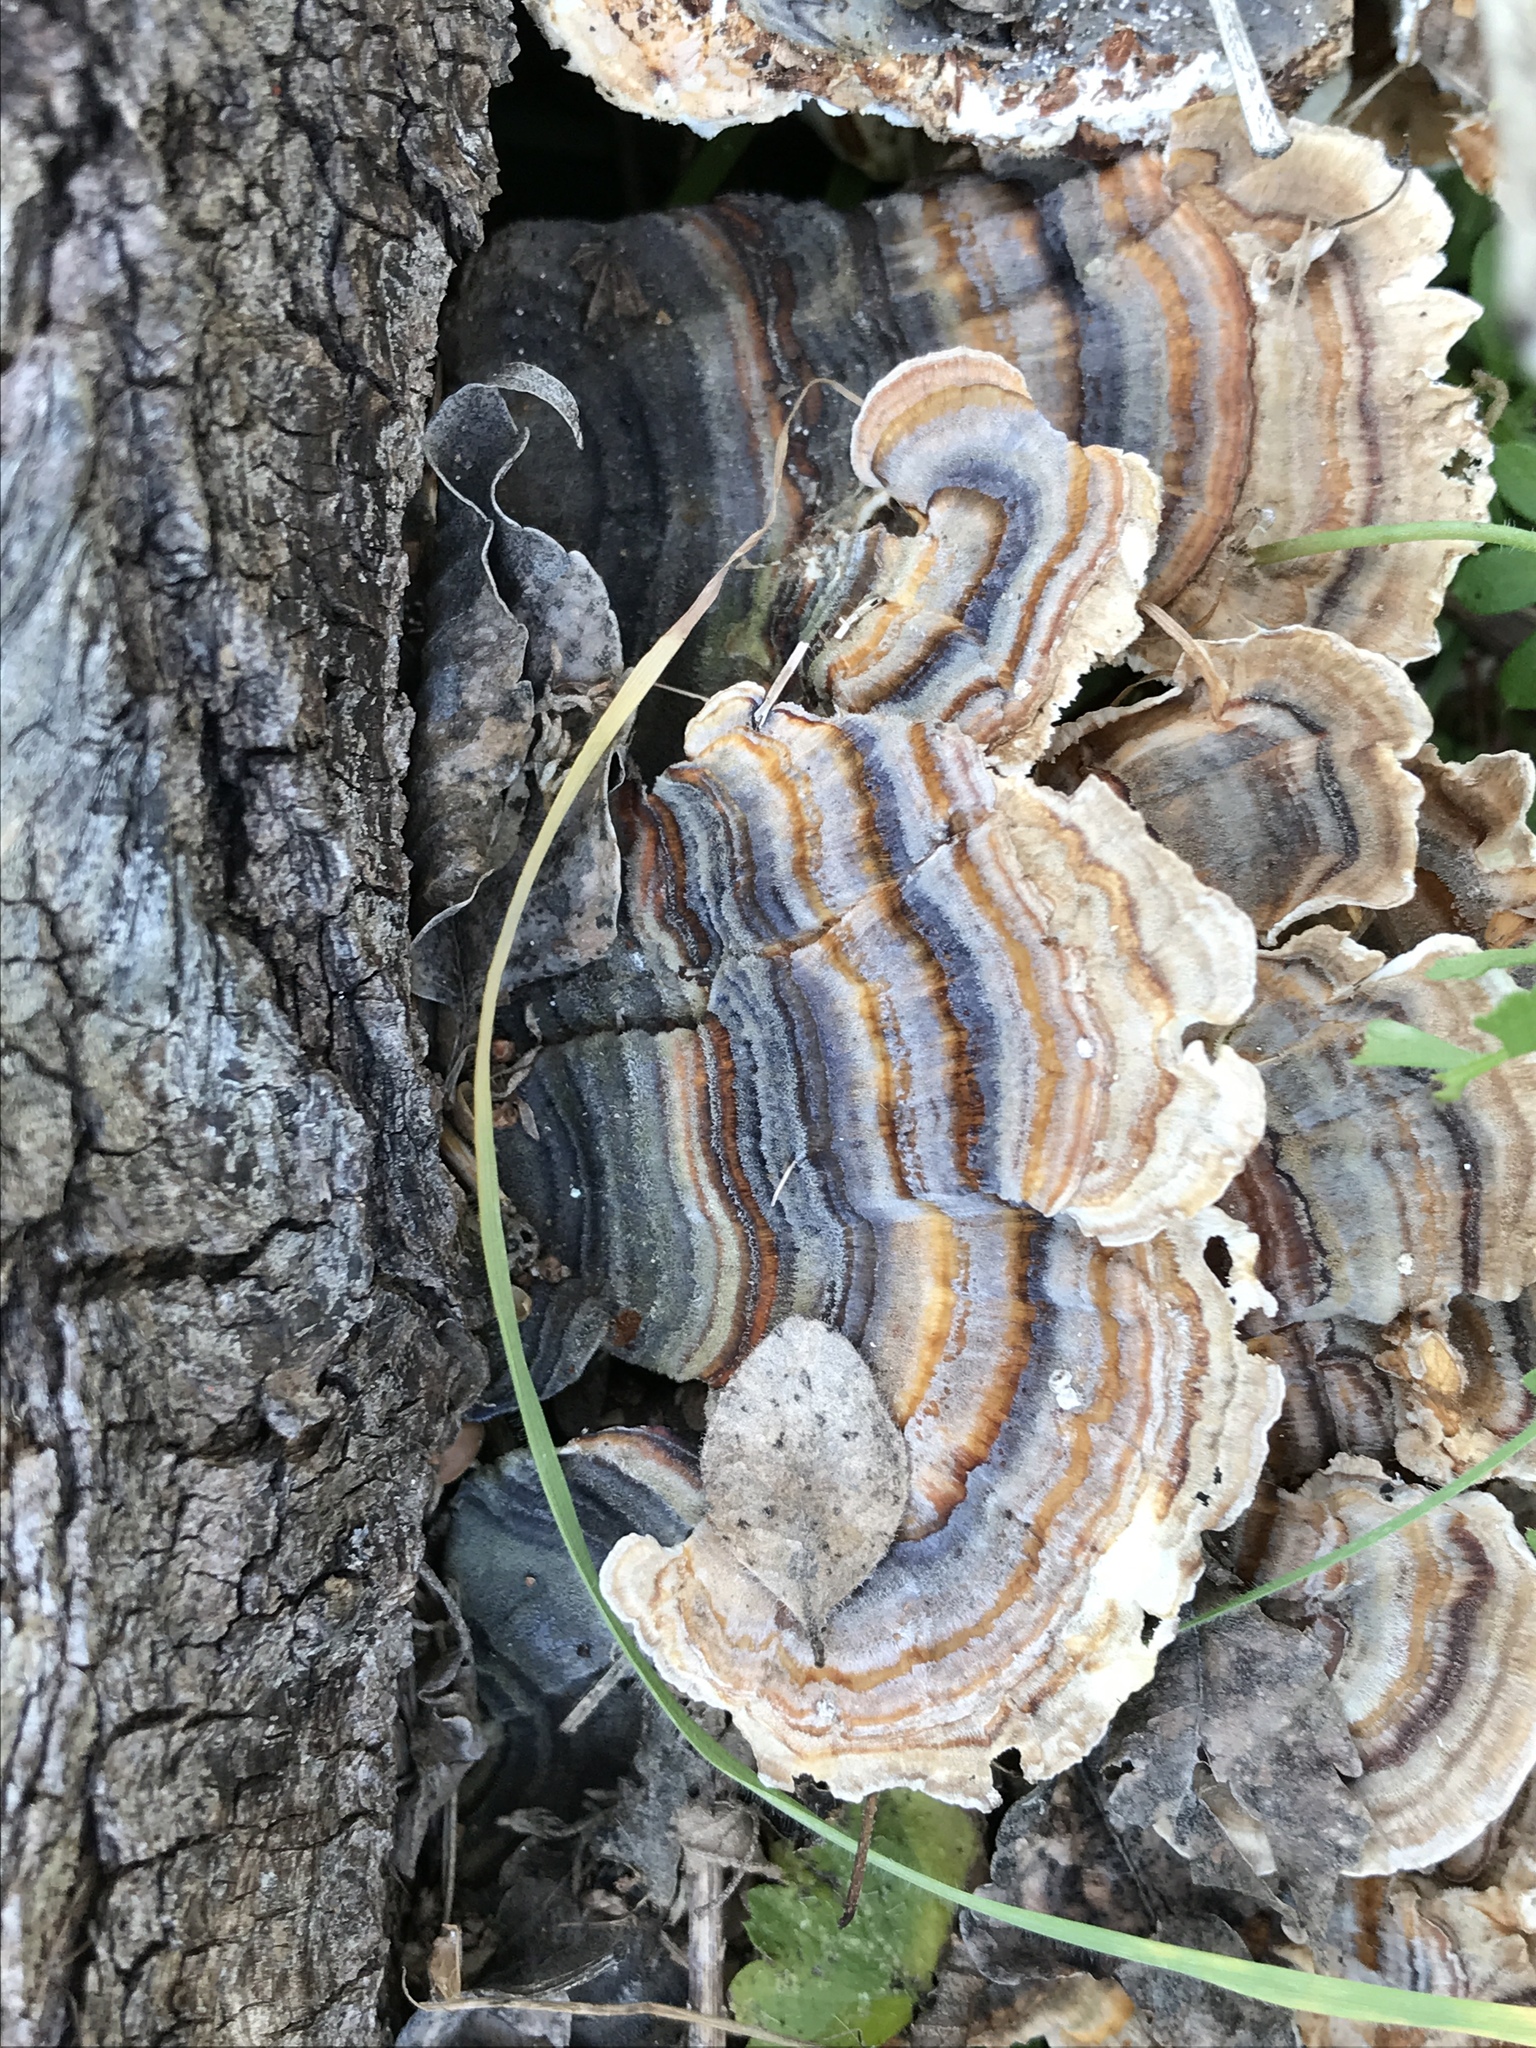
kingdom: Fungi
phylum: Basidiomycota
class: Agaricomycetes
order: Polyporales
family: Polyporaceae
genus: Trametes
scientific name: Trametes versicolor
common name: Turkeytail
